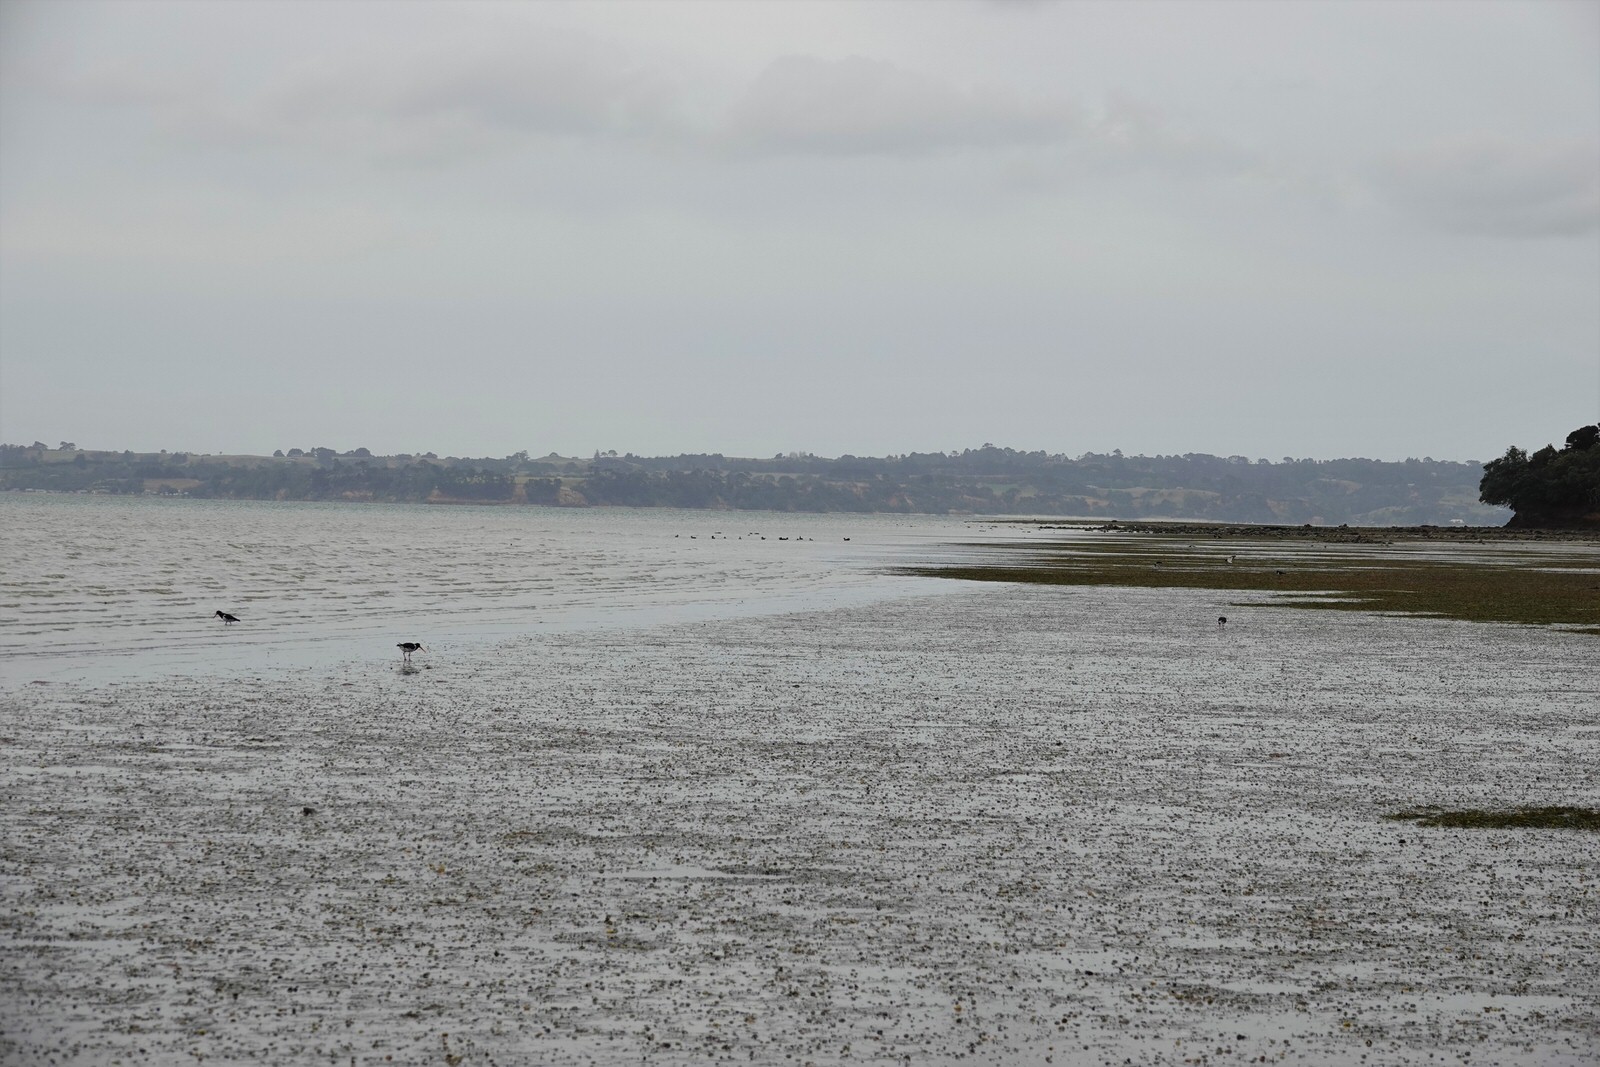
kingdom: Animalia
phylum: Chordata
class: Aves
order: Charadriiformes
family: Haematopodidae
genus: Haematopus
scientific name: Haematopus finschi
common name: South island oystercatcher
